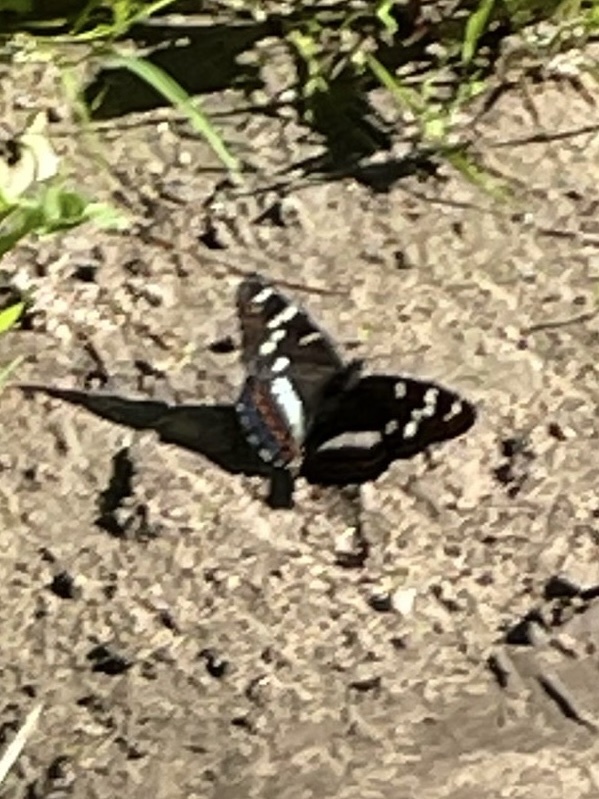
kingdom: Animalia
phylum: Arthropoda
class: Insecta
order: Lepidoptera
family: Nymphalidae
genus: Limenitis
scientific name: Limenitis populi
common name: Poplar admiral
